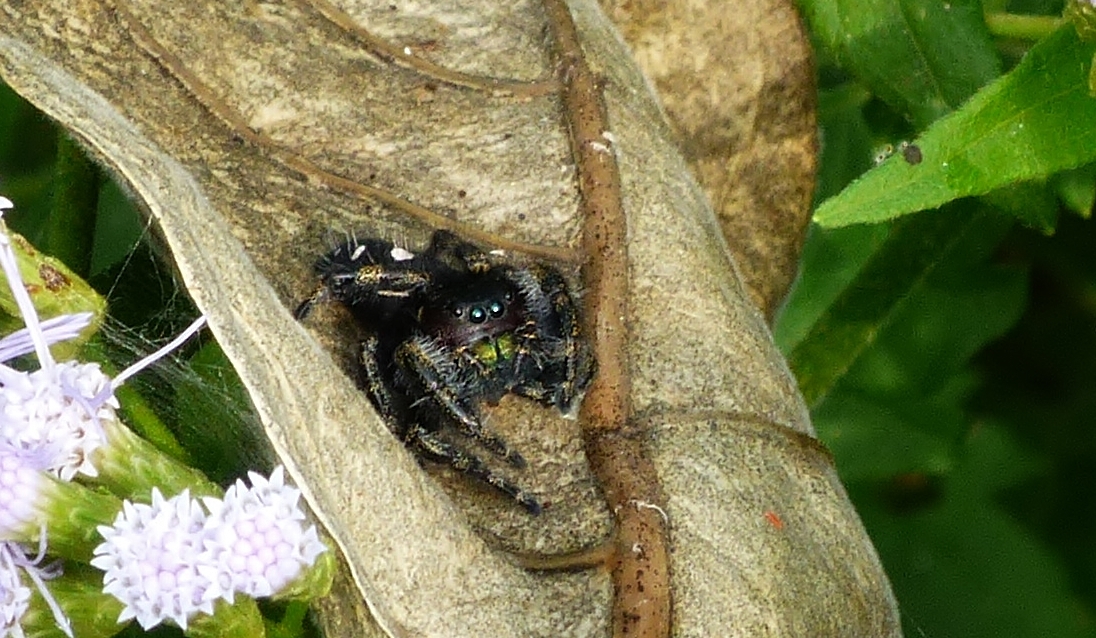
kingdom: Animalia
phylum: Arthropoda
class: Arachnida
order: Araneae
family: Salticidae
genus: Phidippus
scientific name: Phidippus audax
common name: Bold jumper
